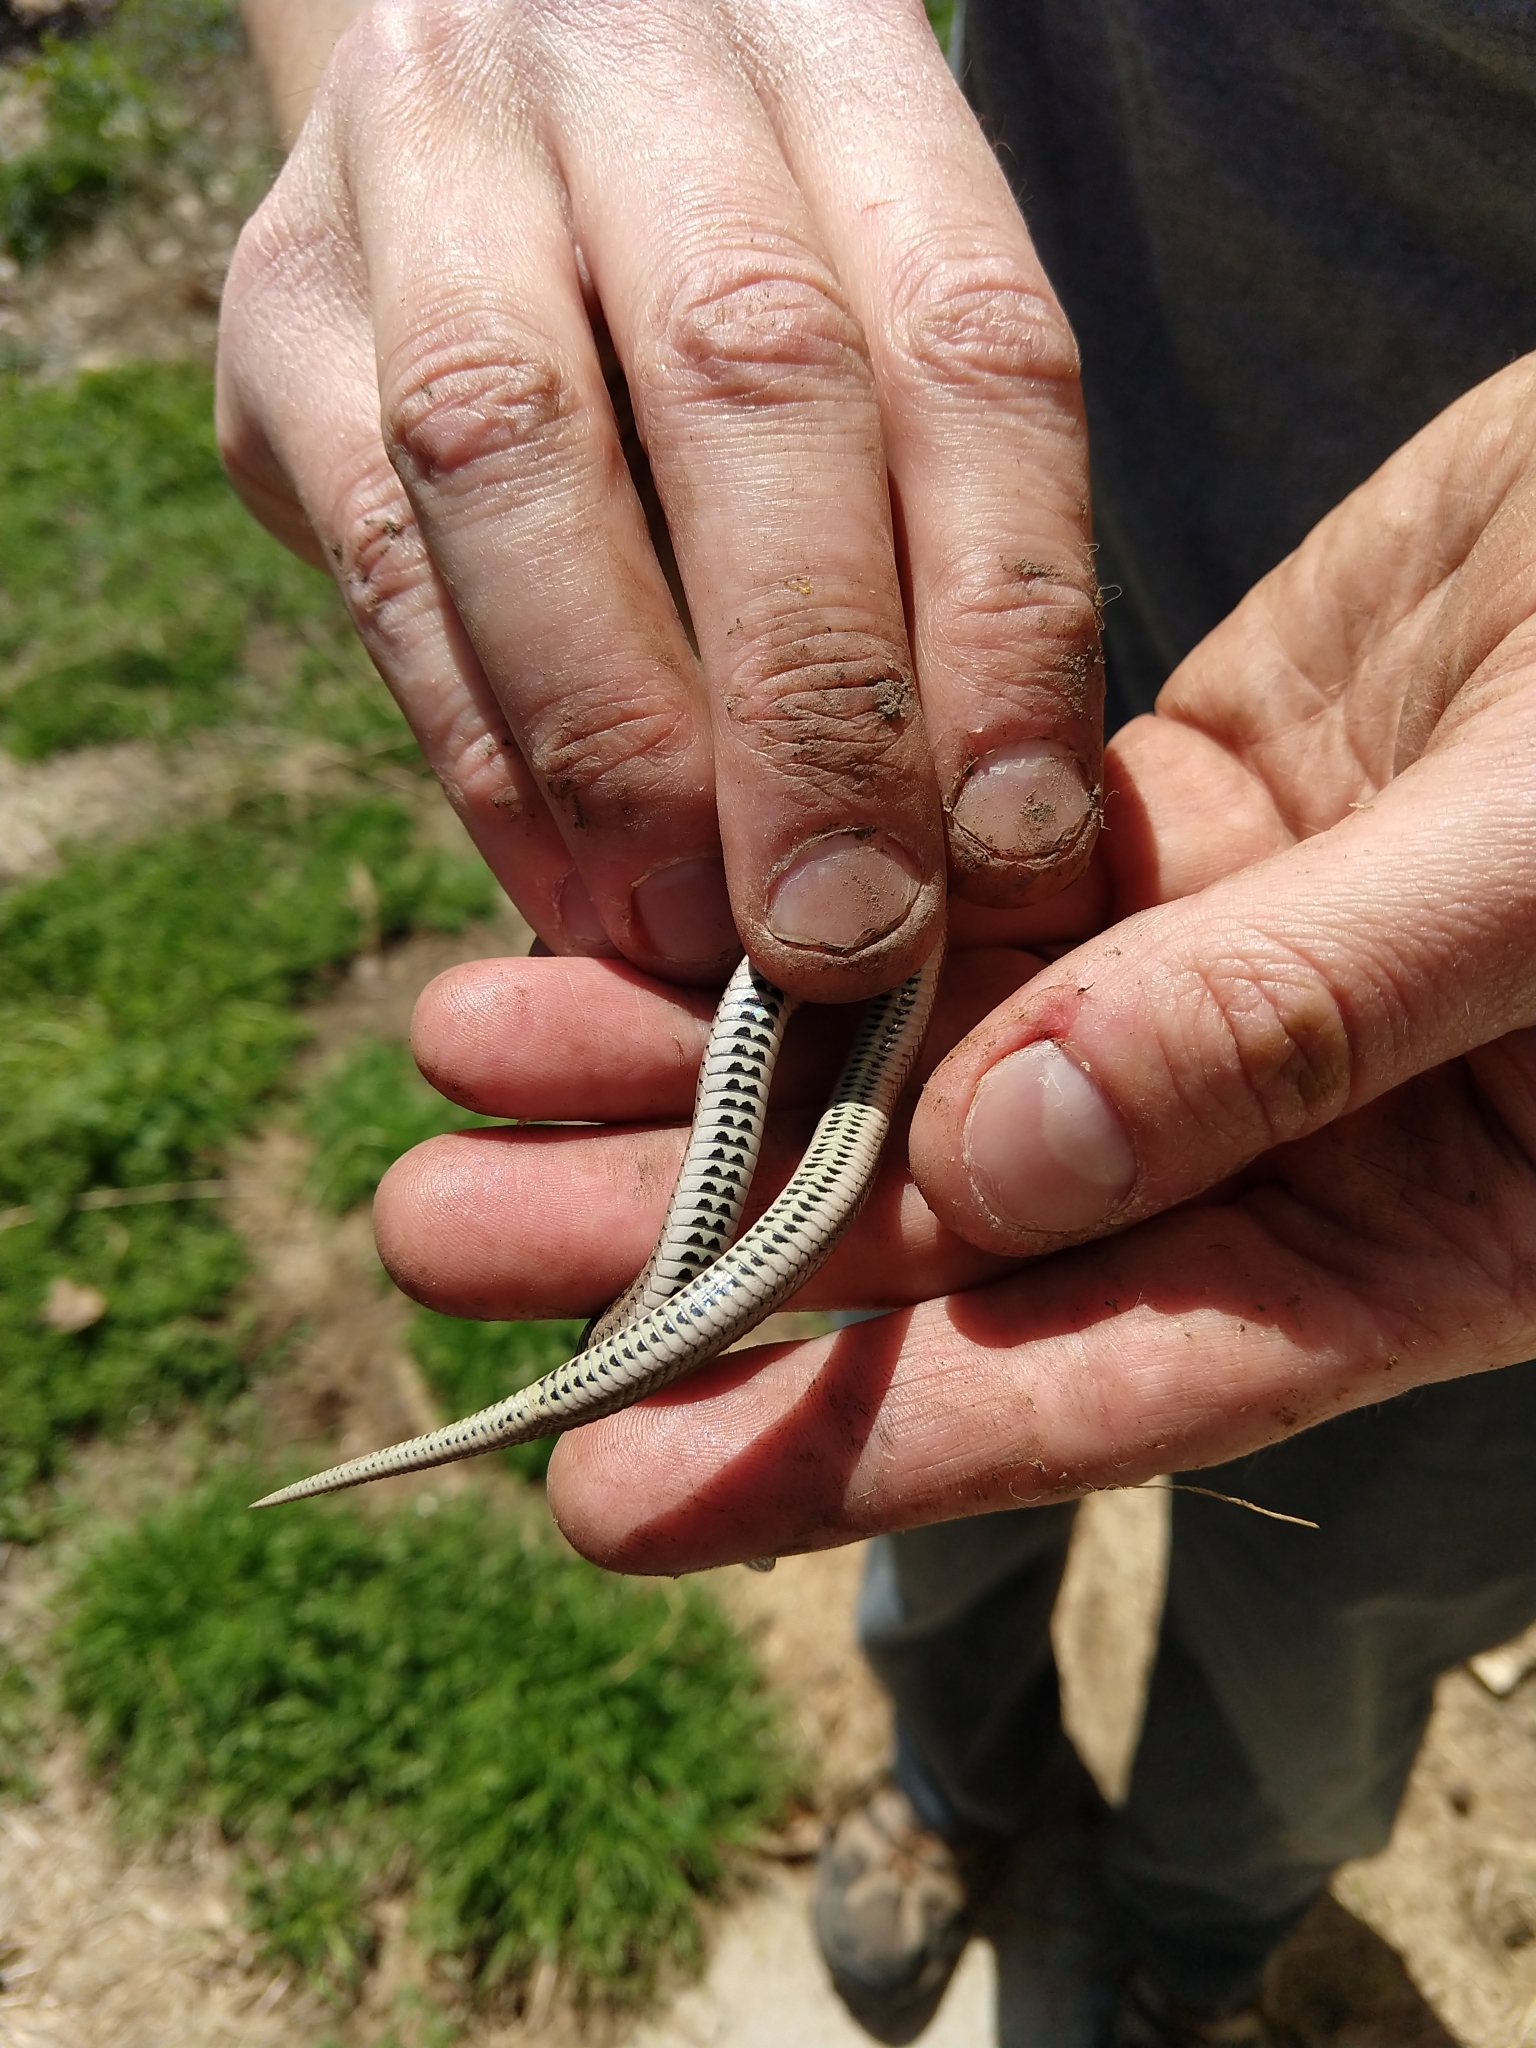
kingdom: Animalia
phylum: Chordata
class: Squamata
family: Colubridae
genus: Tropidoclonion
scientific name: Tropidoclonion lineatum
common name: Lined snake
